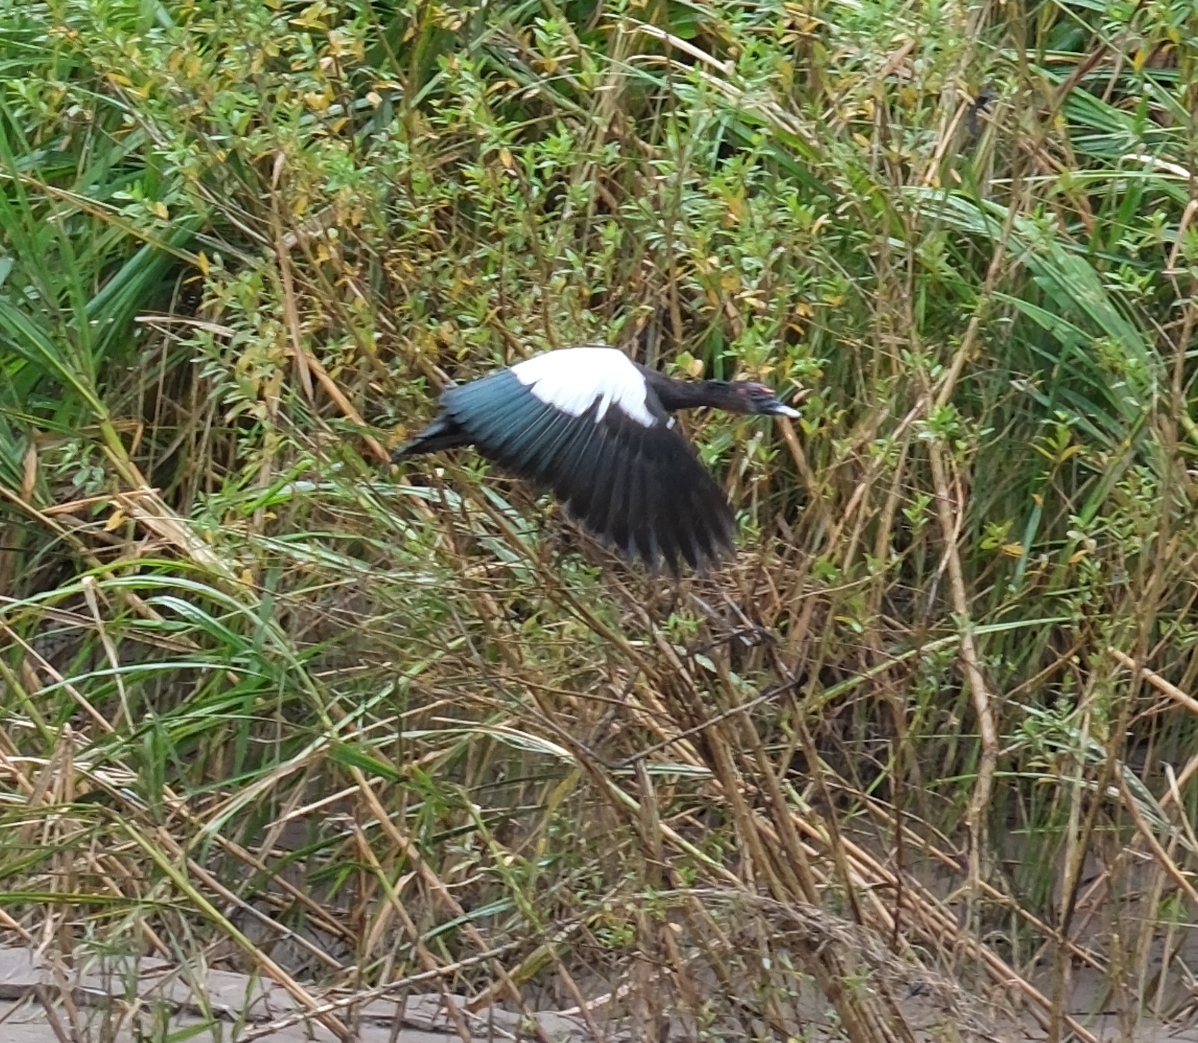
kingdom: Animalia
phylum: Chordata
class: Aves
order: Anseriformes
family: Anatidae
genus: Cairina
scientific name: Cairina moschata
